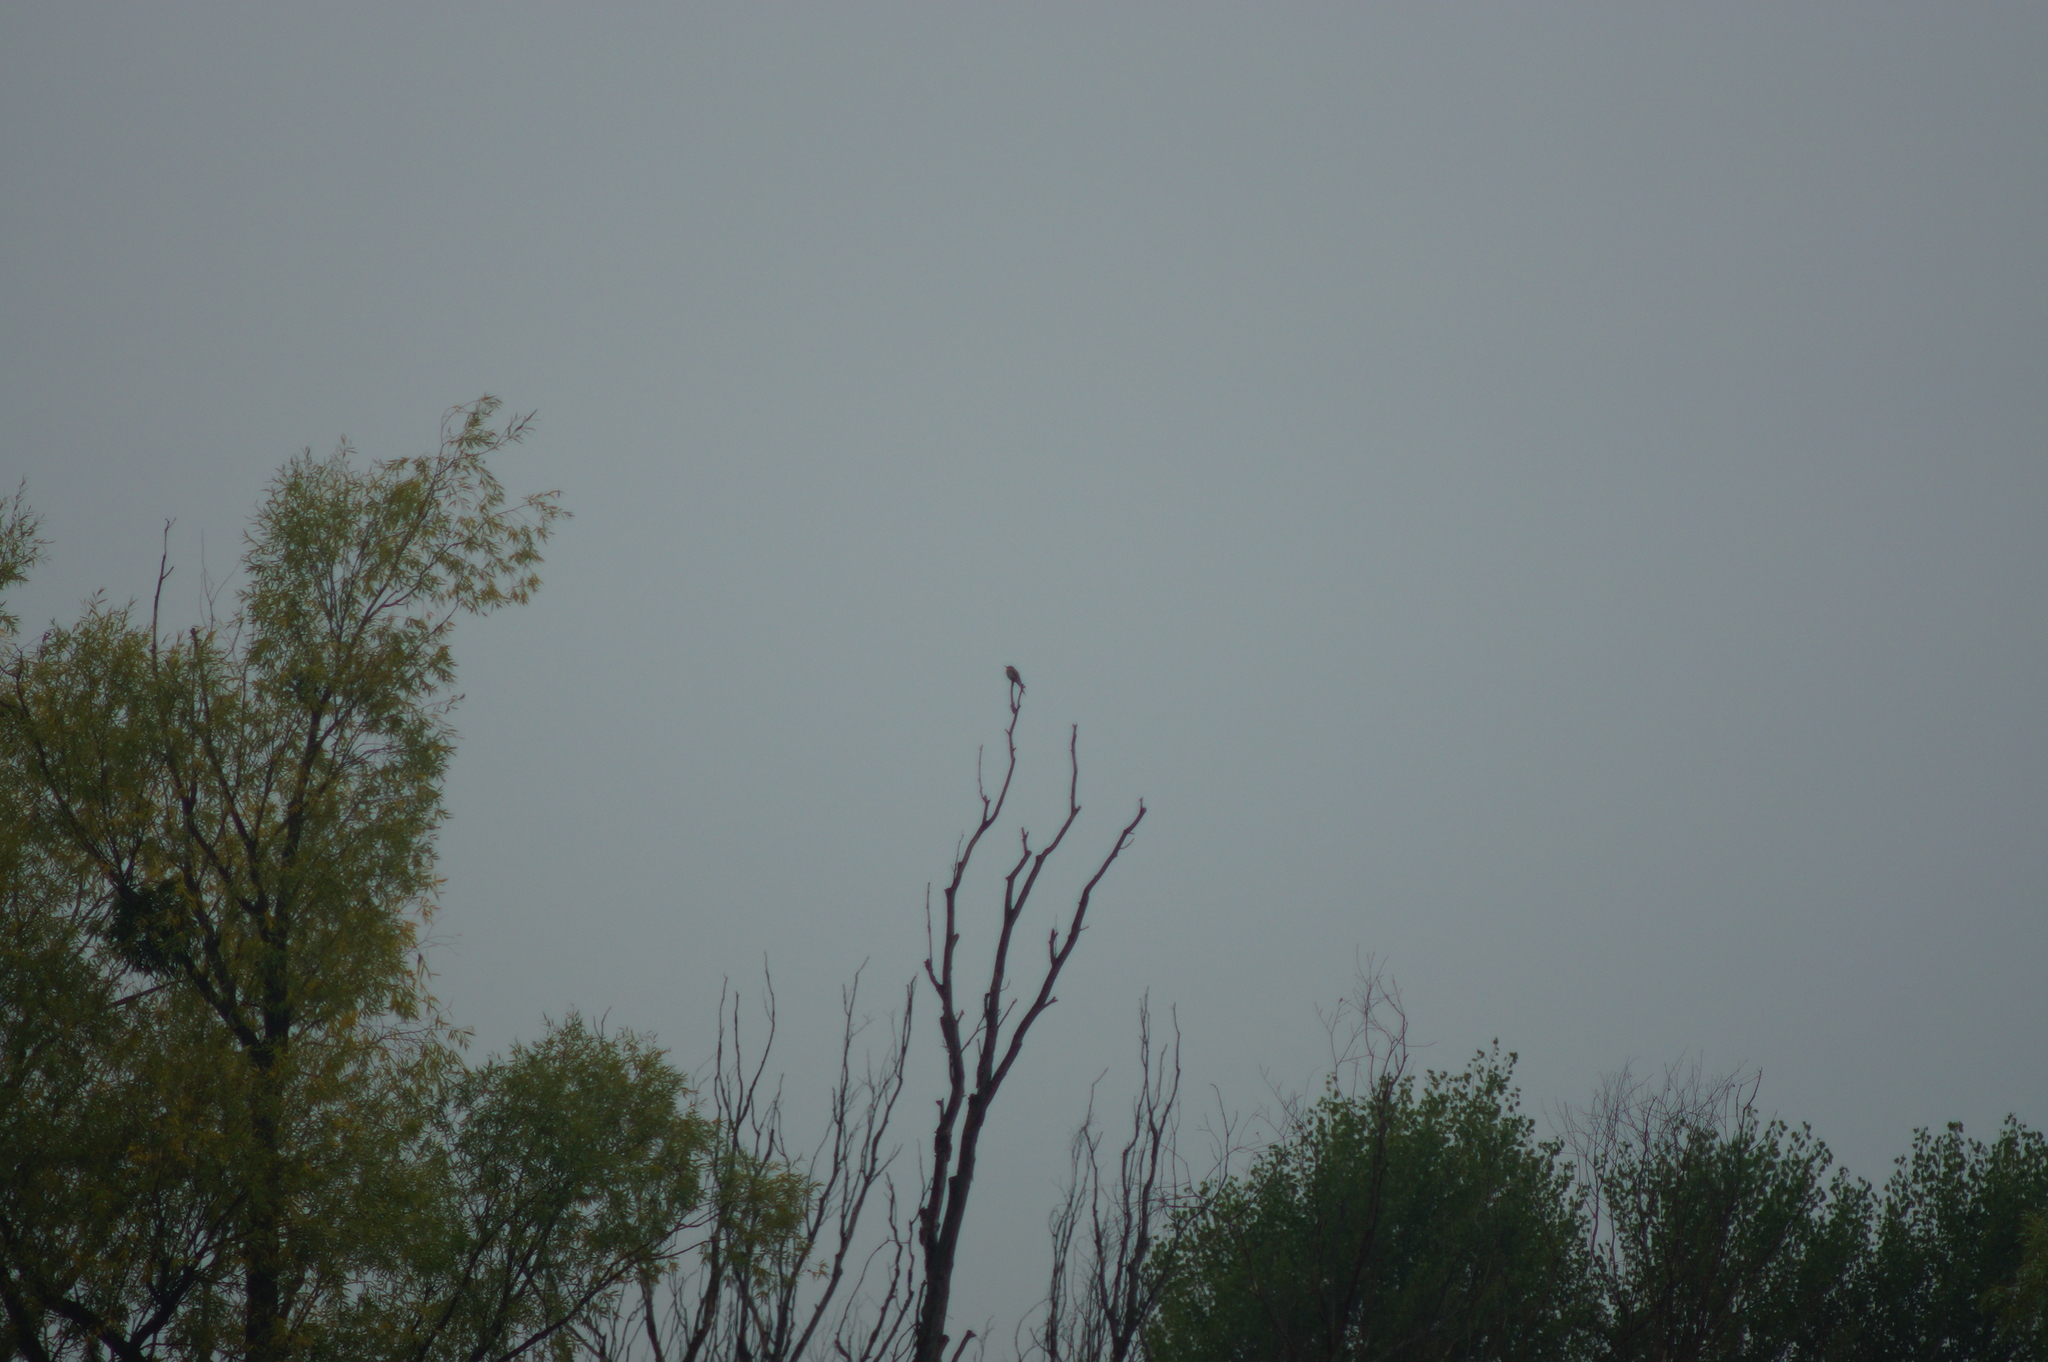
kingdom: Animalia
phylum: Chordata
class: Aves
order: Coraciiformes
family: Meropidae
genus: Merops
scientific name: Merops apiaster
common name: European bee-eater
